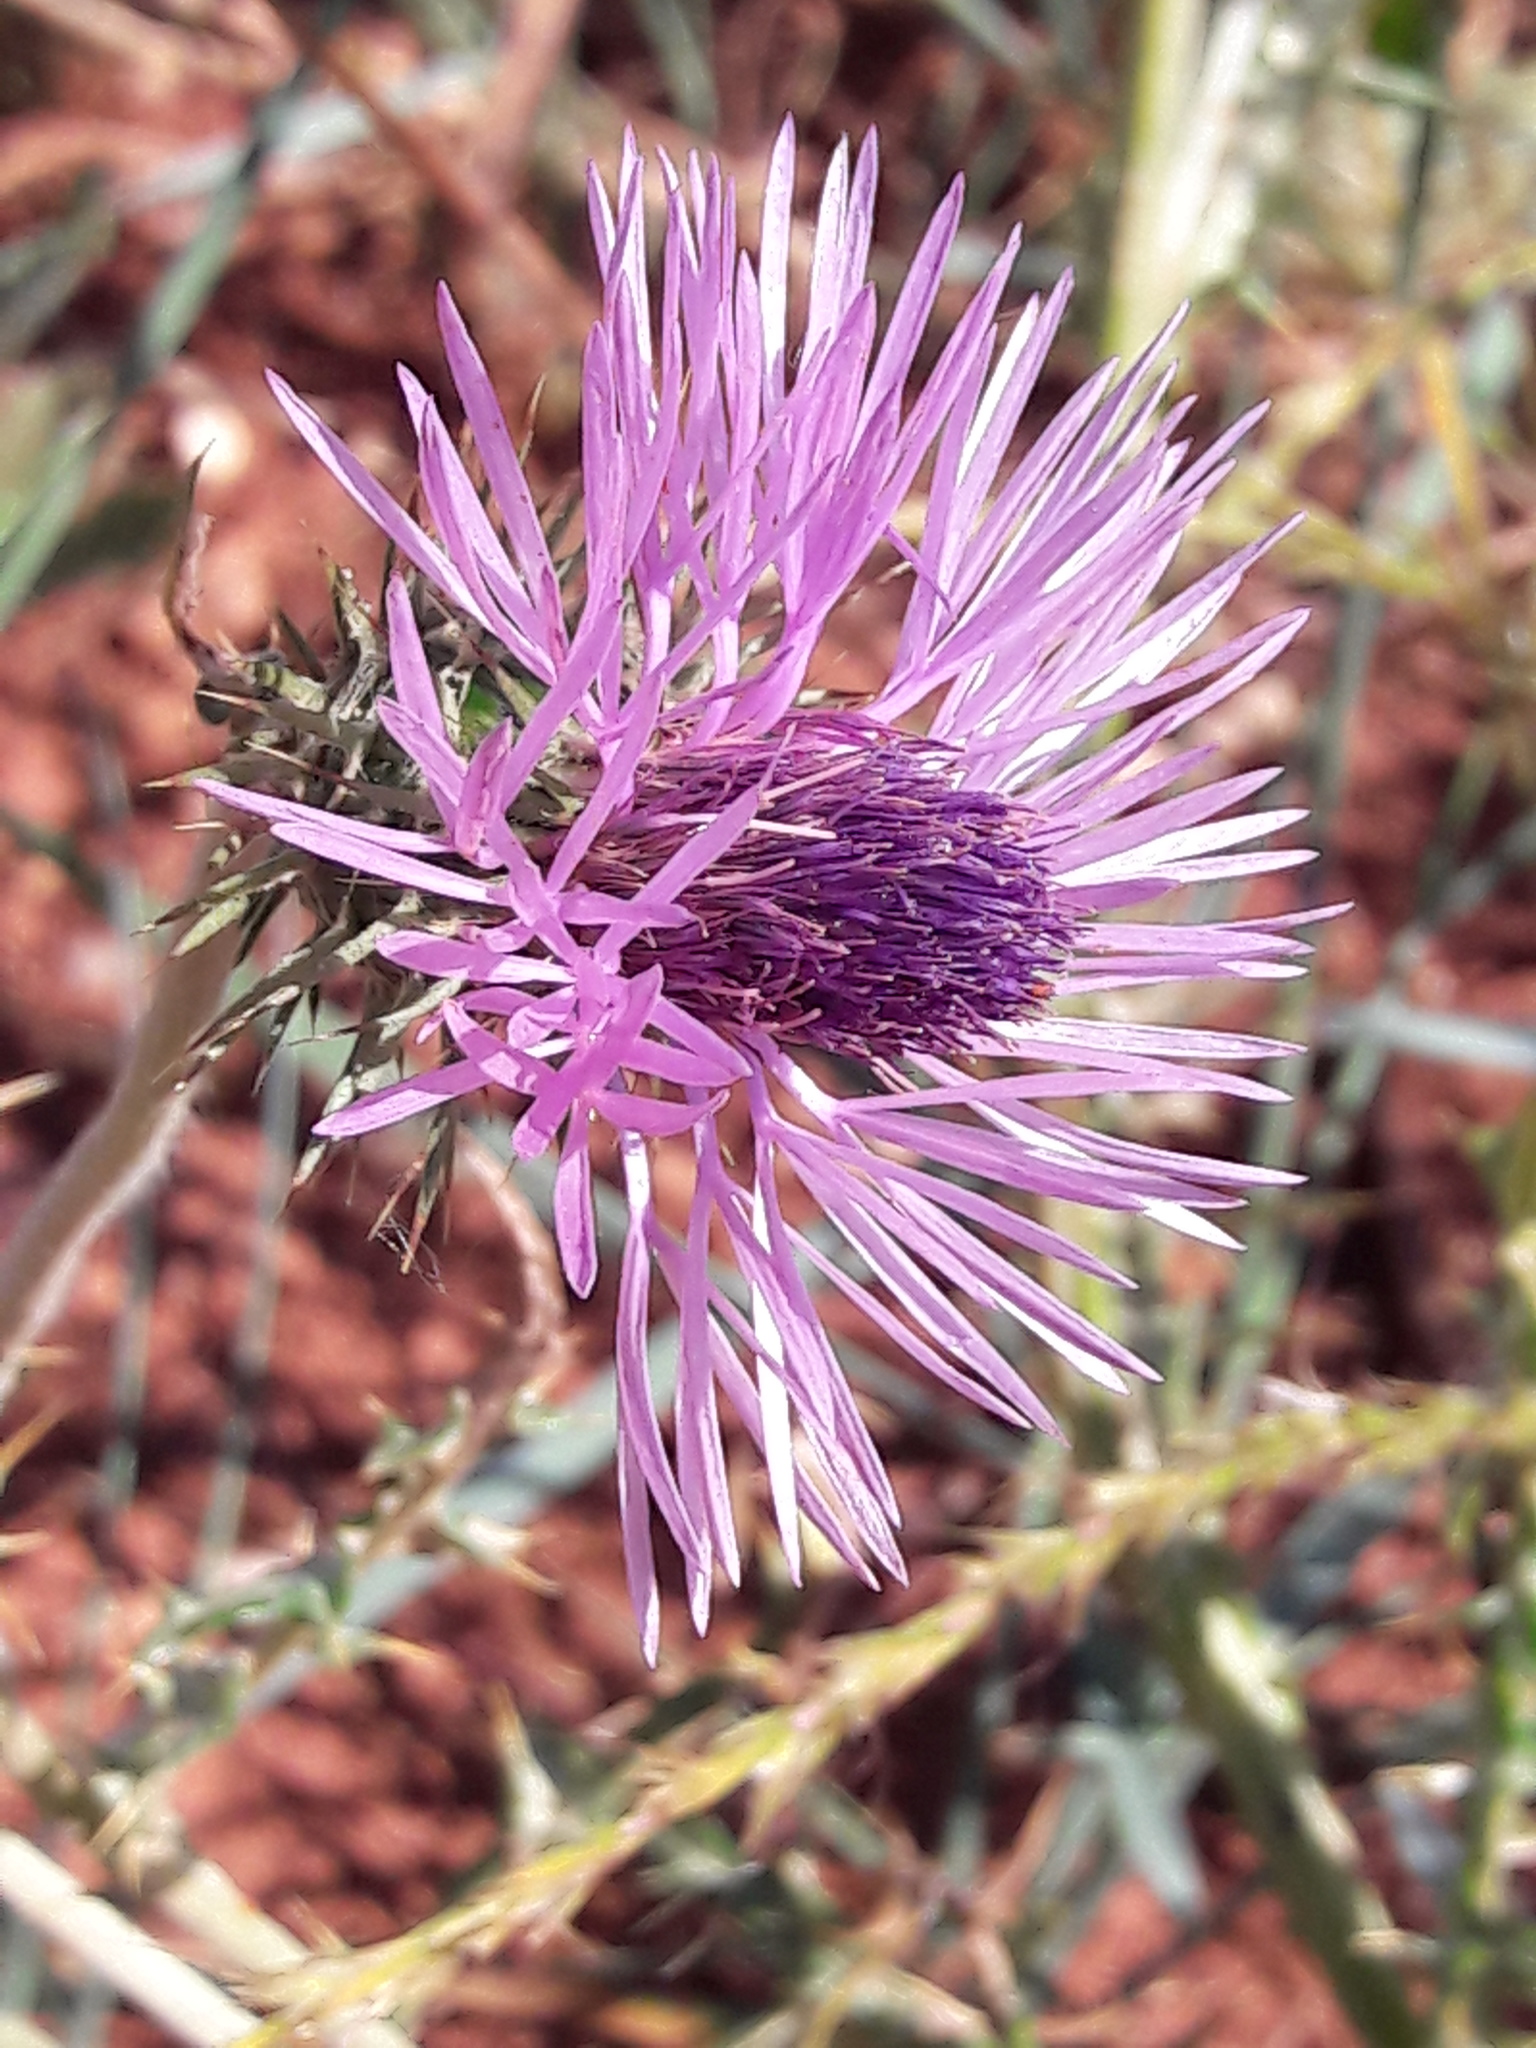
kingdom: Plantae
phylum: Tracheophyta
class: Magnoliopsida
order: Asterales
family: Asteraceae
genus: Galactites
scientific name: Galactites tomentosa
